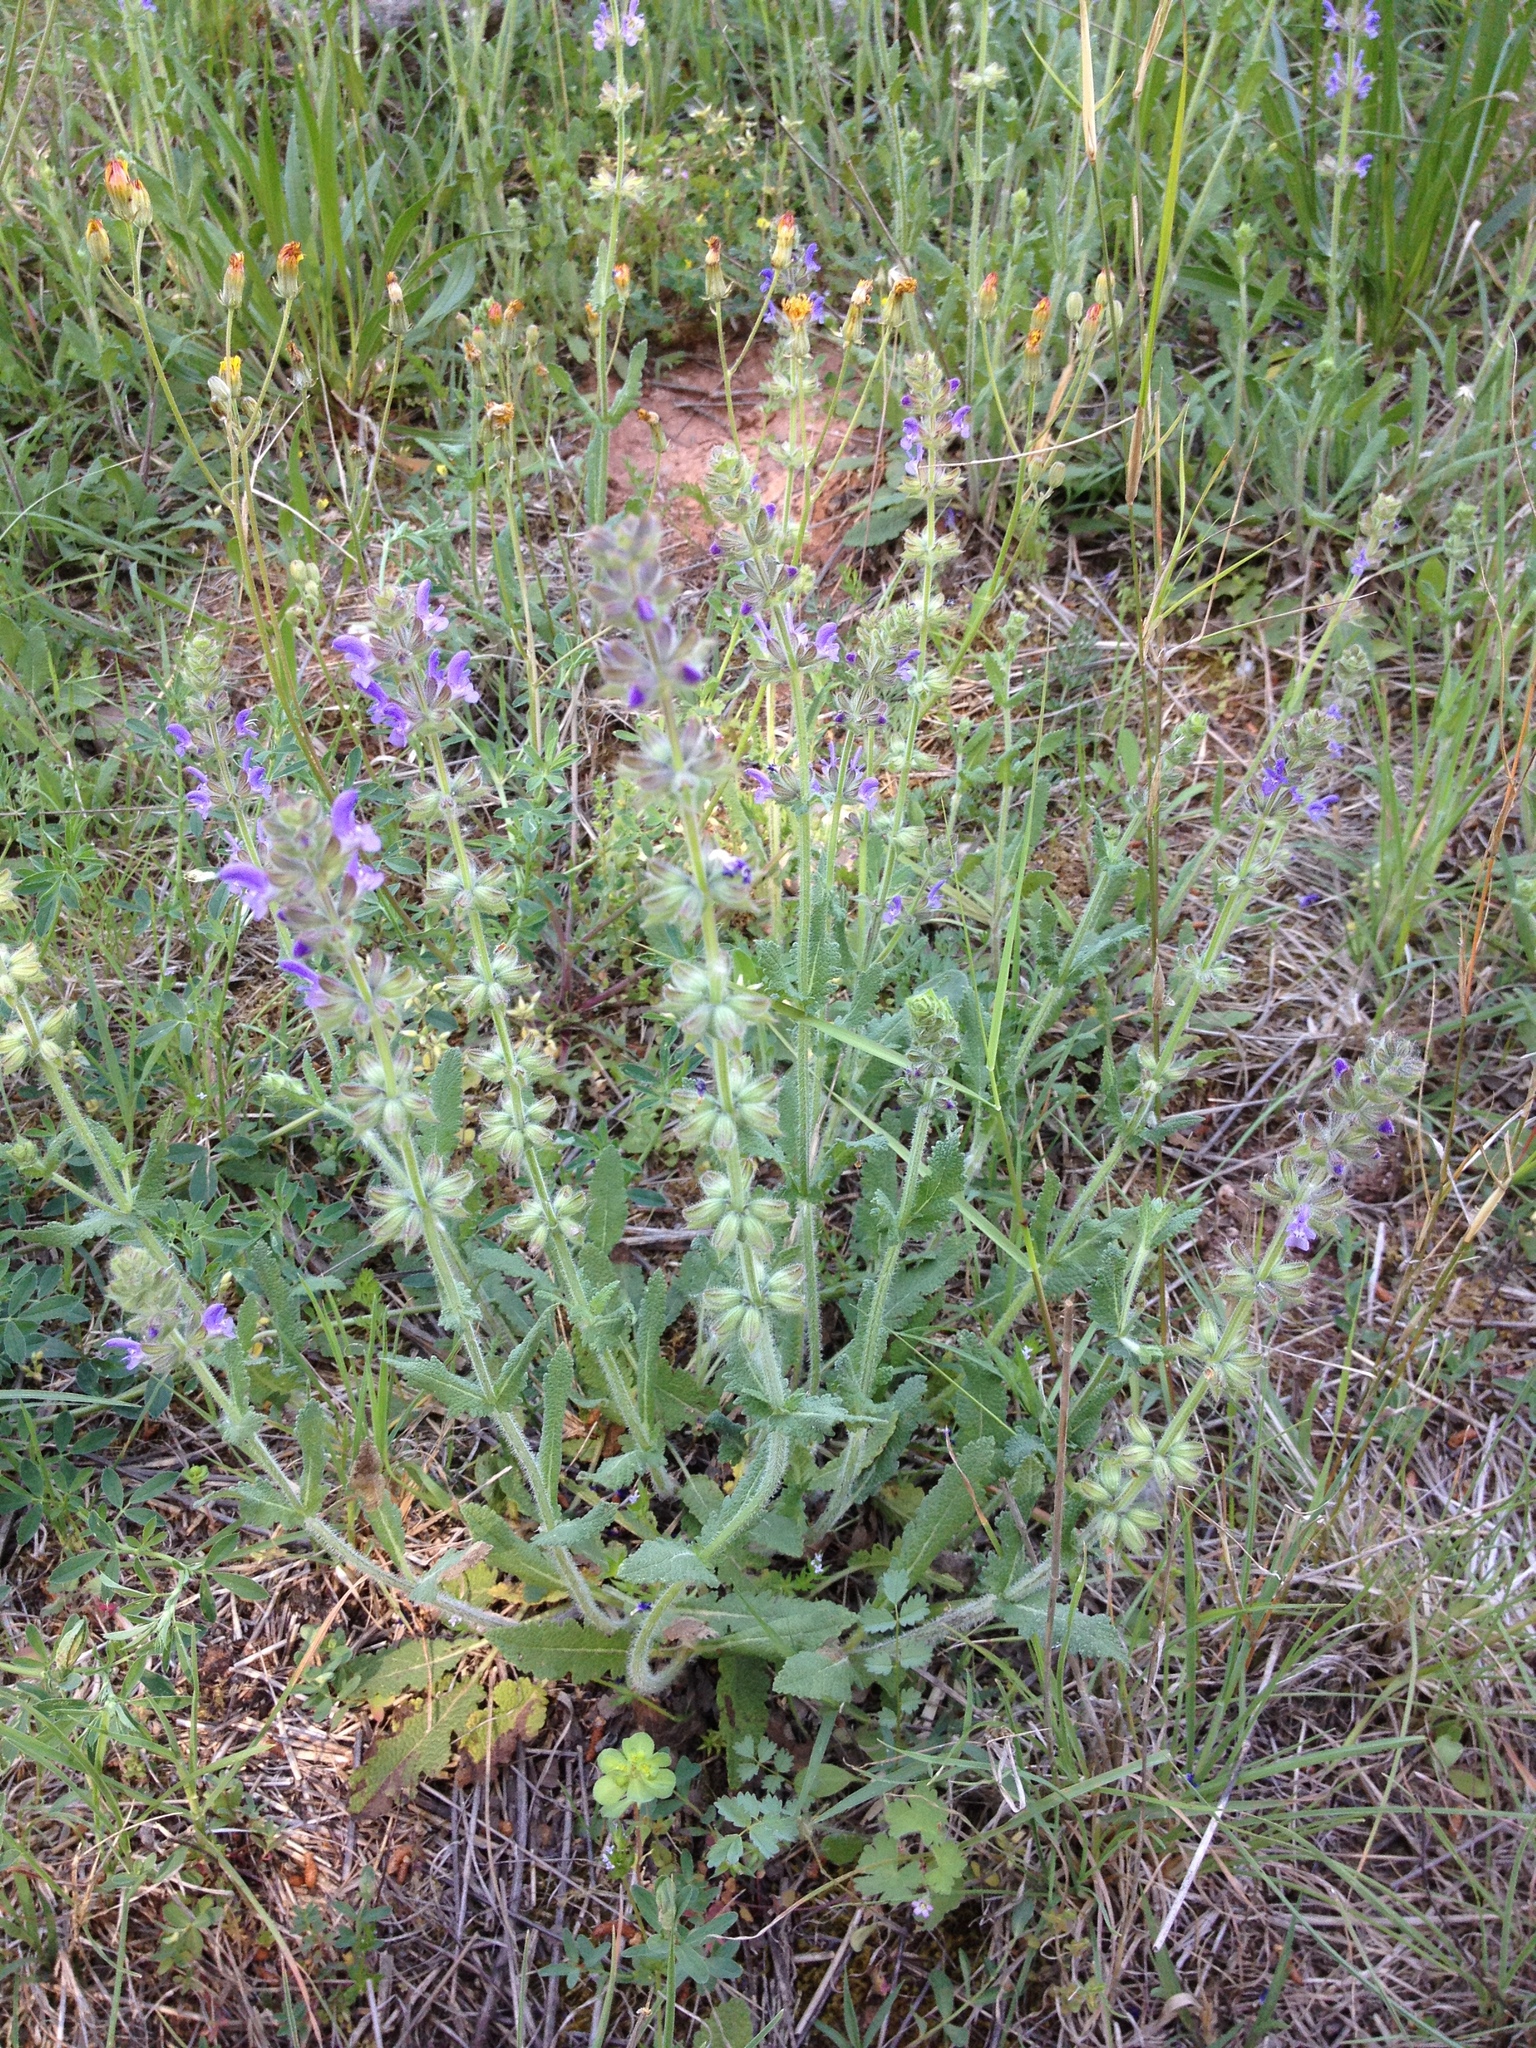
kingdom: Plantae
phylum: Tracheophyta
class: Magnoliopsida
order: Lamiales
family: Lamiaceae
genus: Salvia
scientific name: Salvia verbenaca
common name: Wild clary
